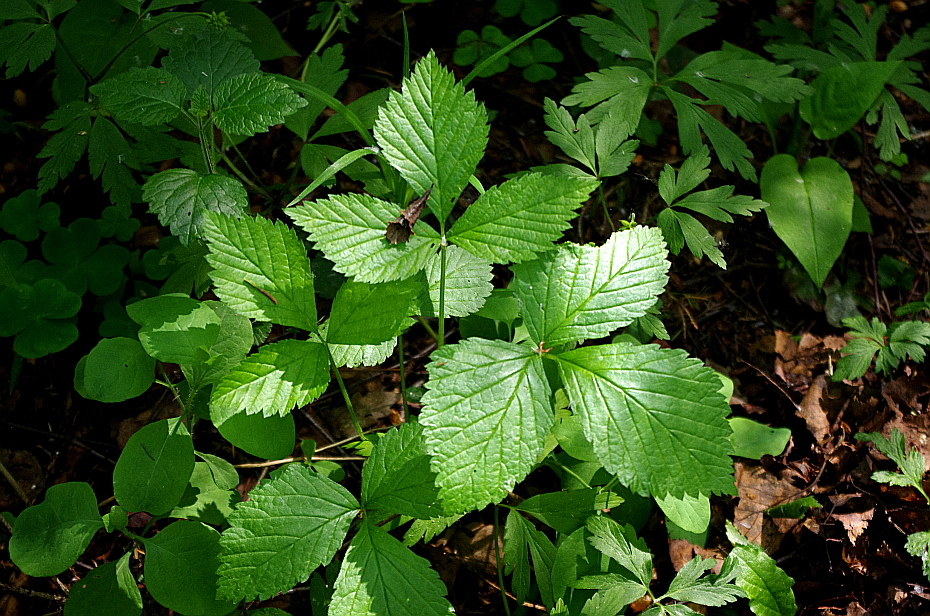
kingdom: Plantae
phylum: Tracheophyta
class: Magnoliopsida
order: Rosales
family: Rosaceae
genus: Rubus
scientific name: Rubus saxatilis
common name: Stone bramble
